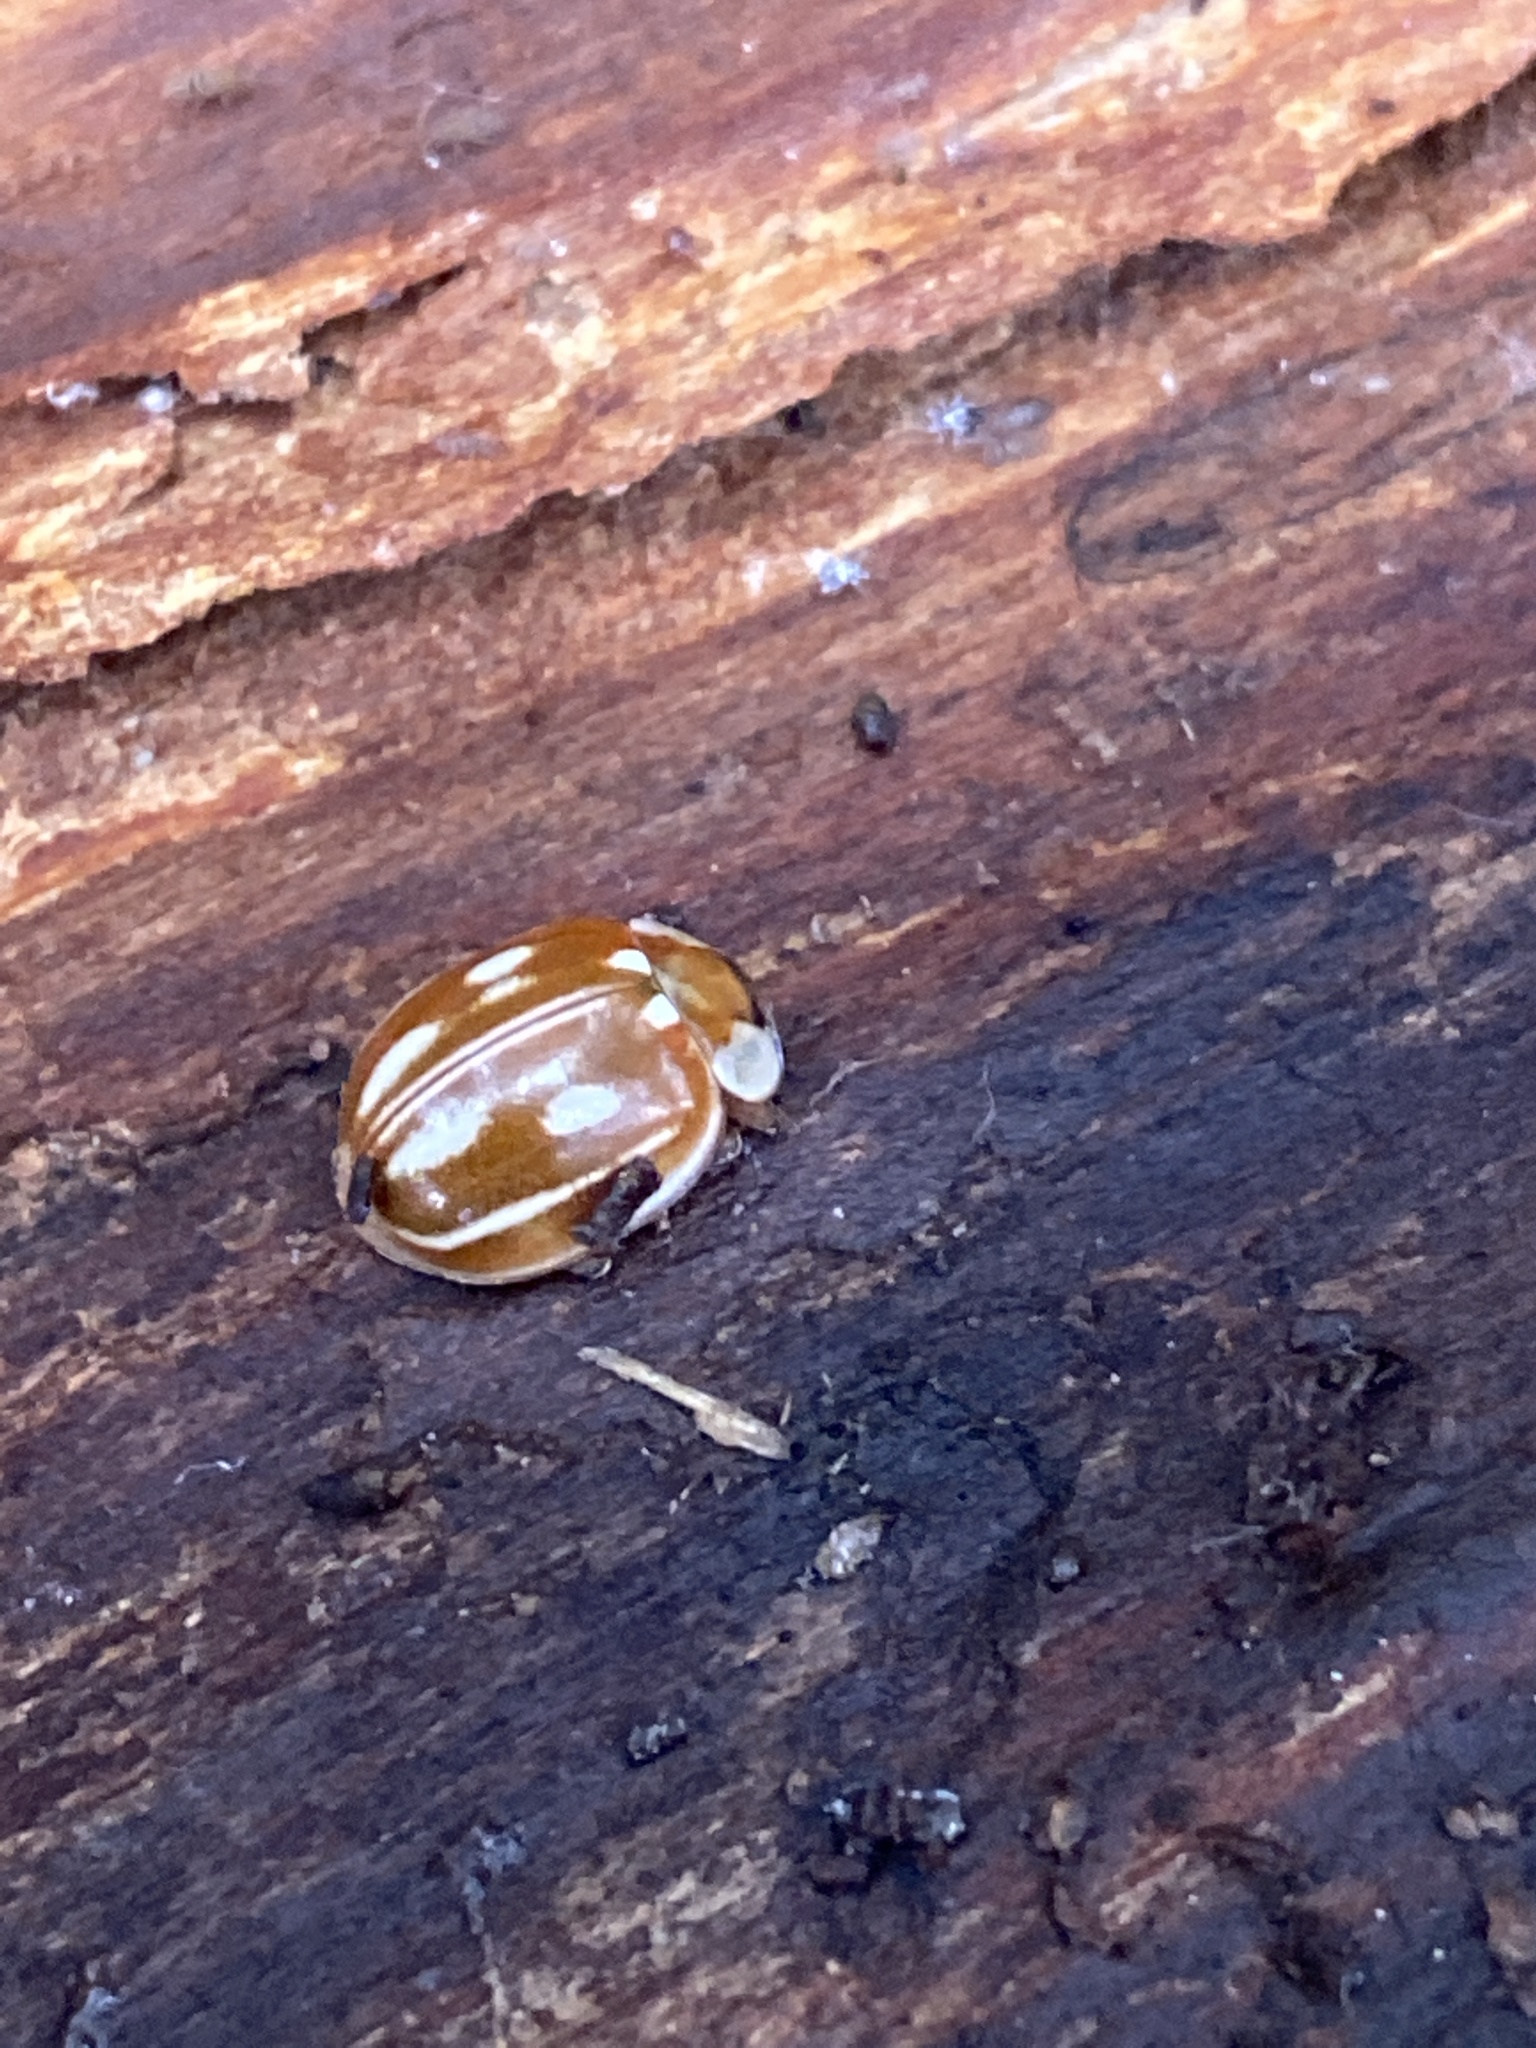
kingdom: Animalia
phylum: Arthropoda
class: Insecta
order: Coleoptera
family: Coccinellidae
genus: Myzia
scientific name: Myzia oblongoguttata
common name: Striped ladybird
